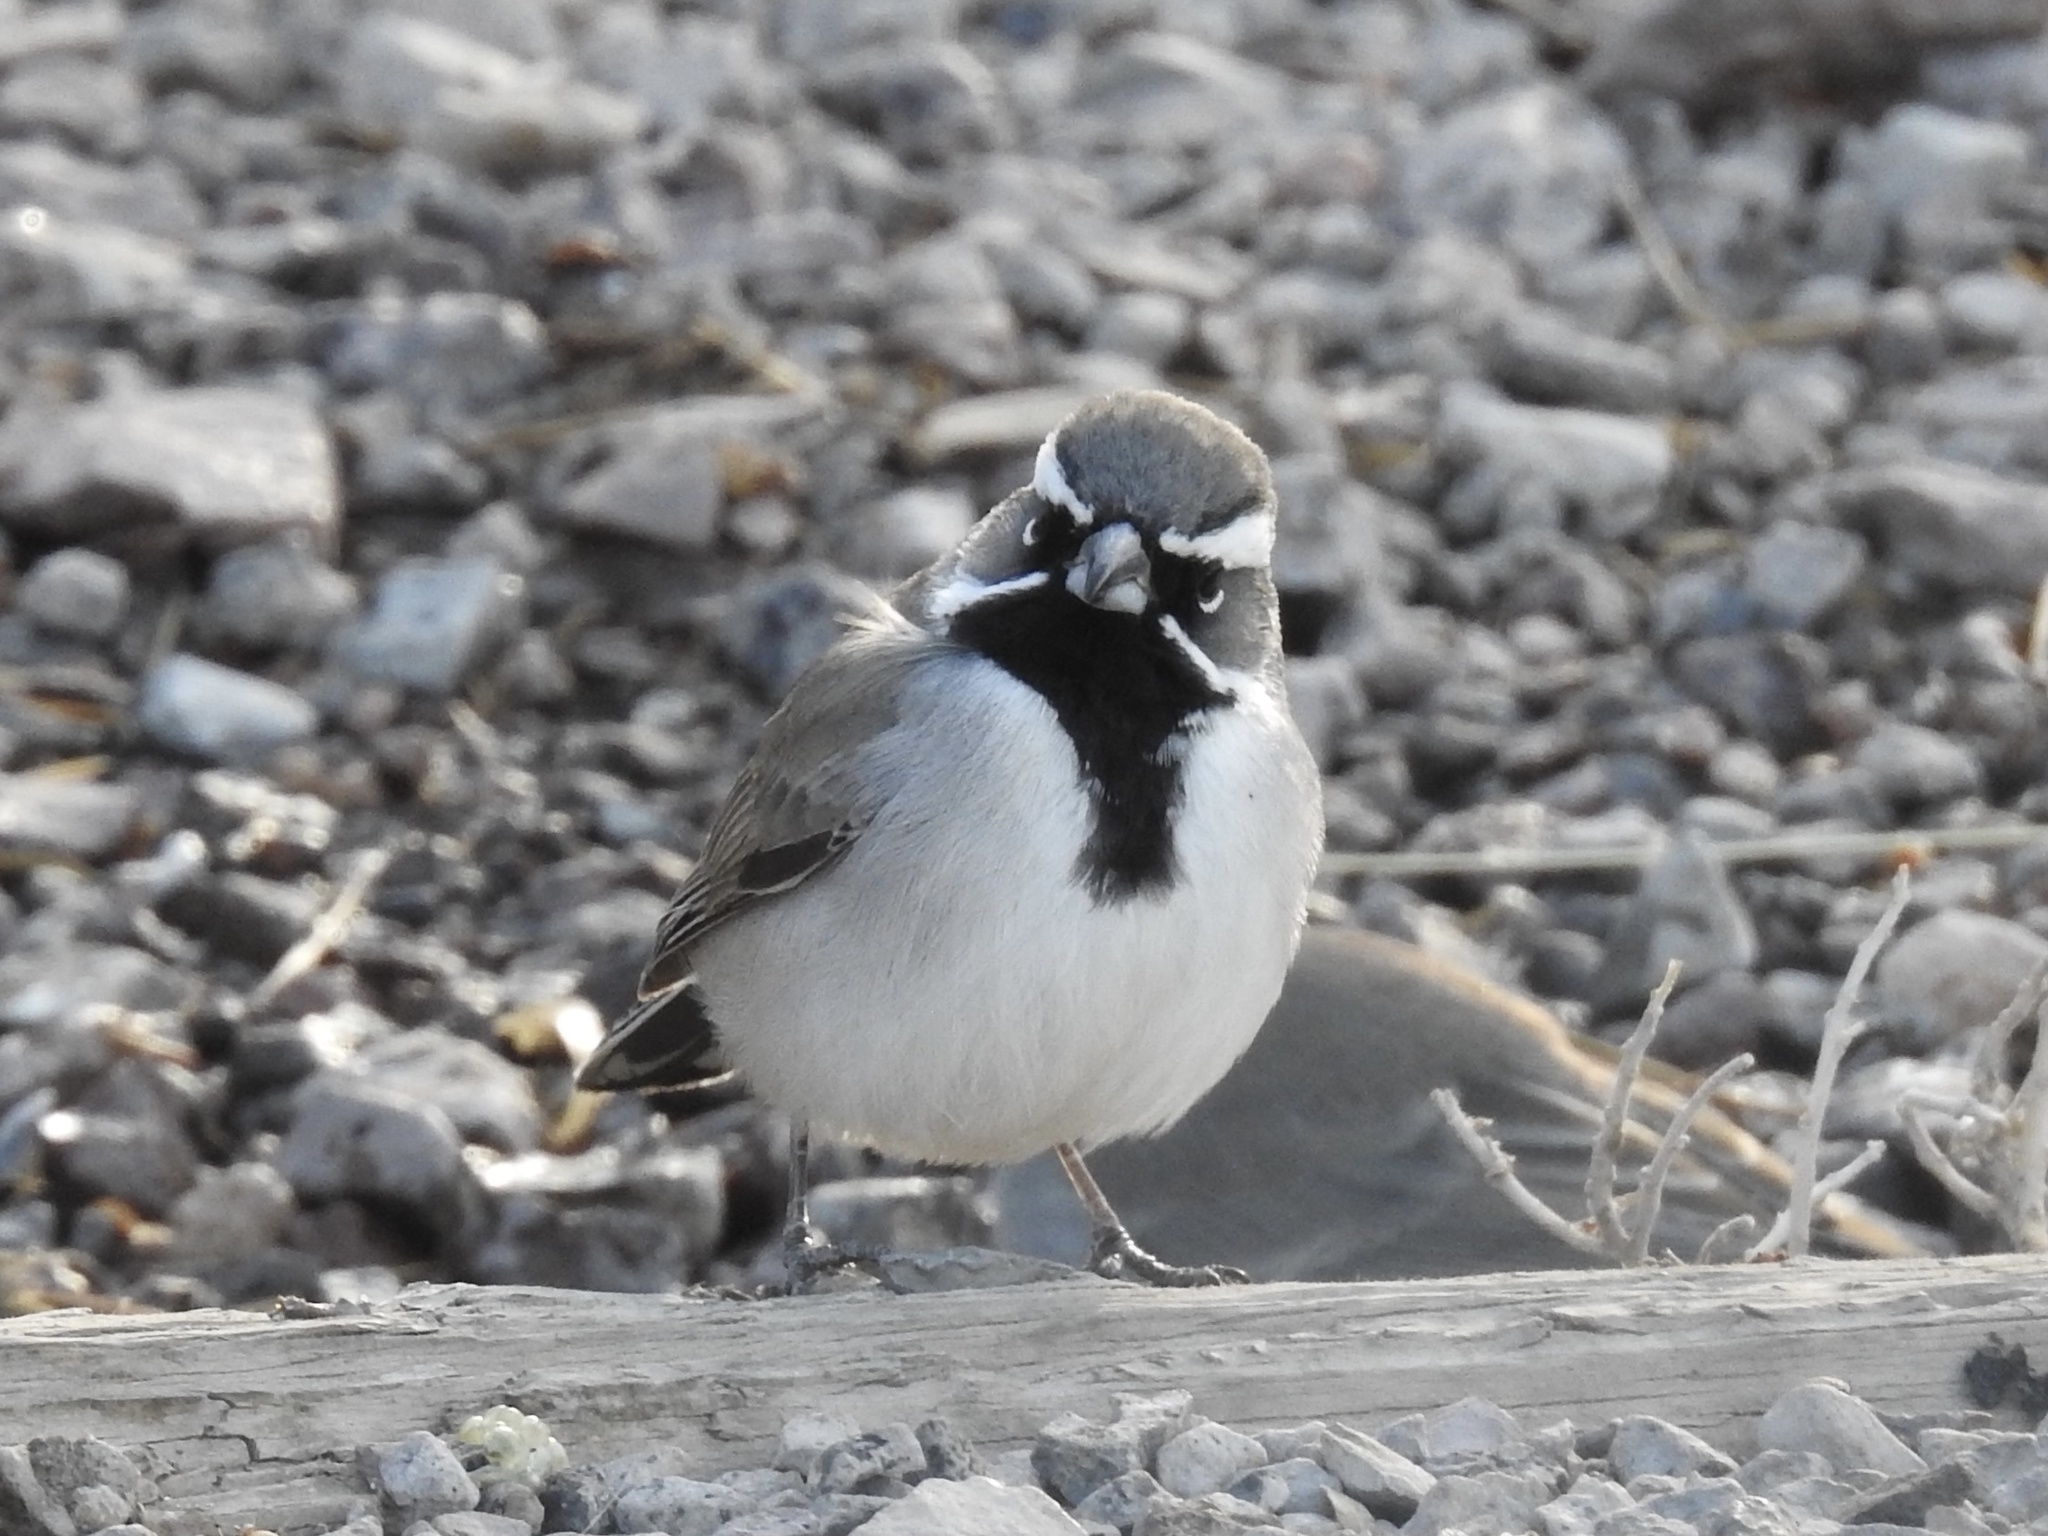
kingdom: Animalia
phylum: Chordata
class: Aves
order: Passeriformes
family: Passerellidae
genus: Amphispiza
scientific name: Amphispiza bilineata
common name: Black-throated sparrow
